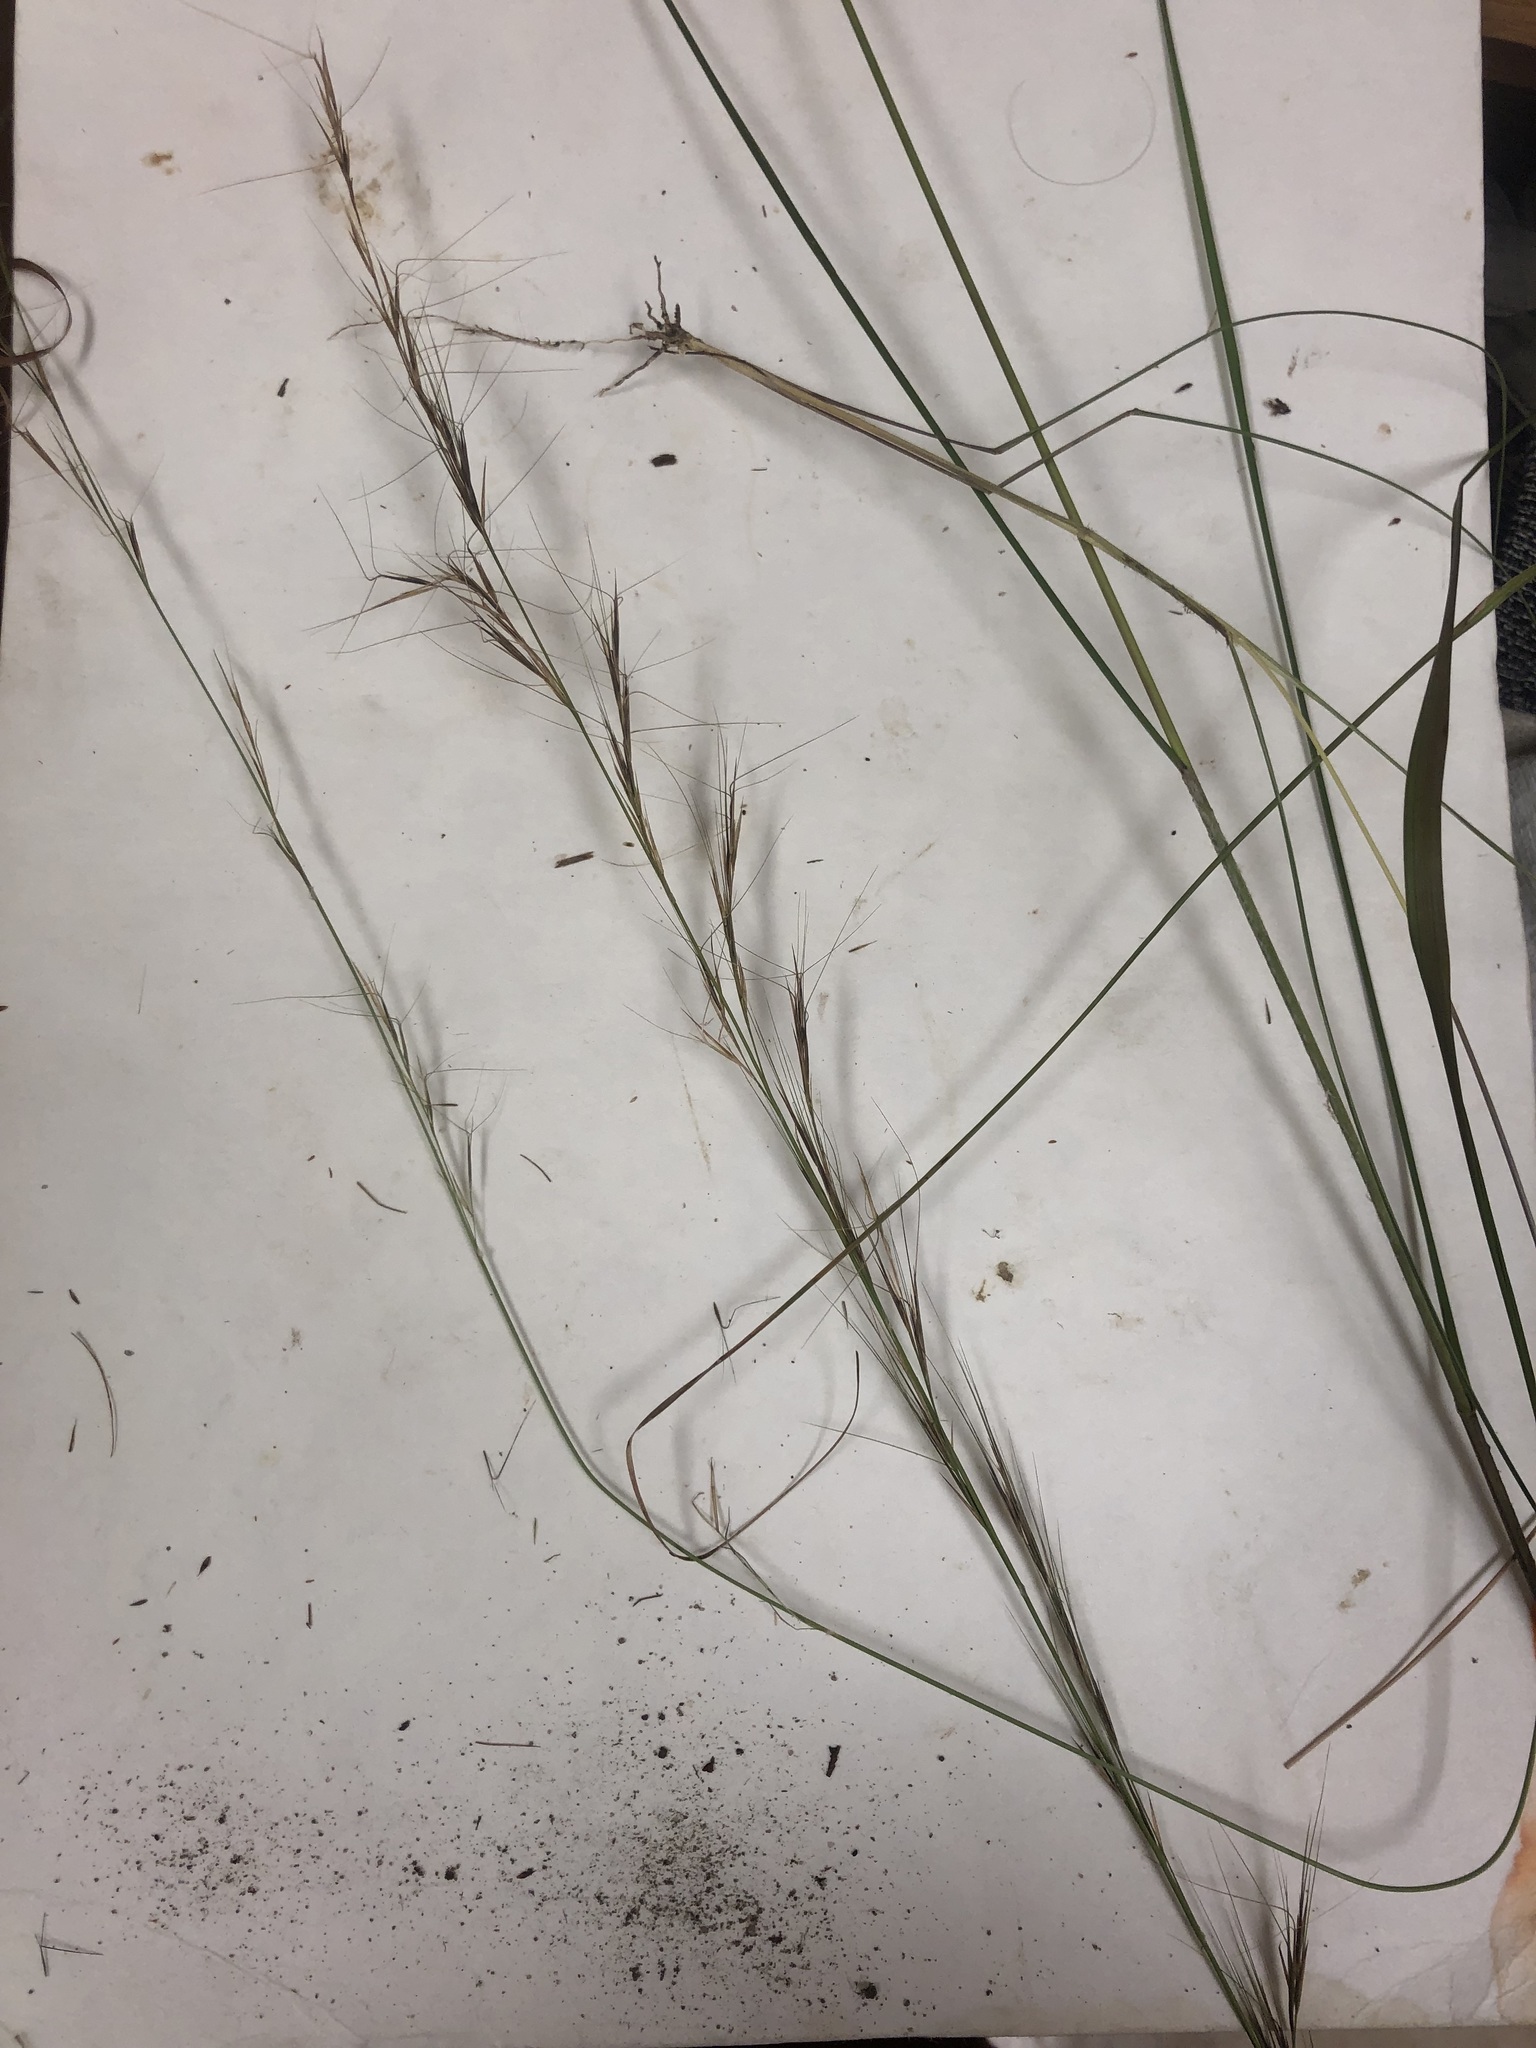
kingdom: Plantae
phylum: Tracheophyta
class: Liliopsida
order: Poales
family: Poaceae
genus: Aristida
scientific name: Aristida lanosa
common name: Woolly three-awn
